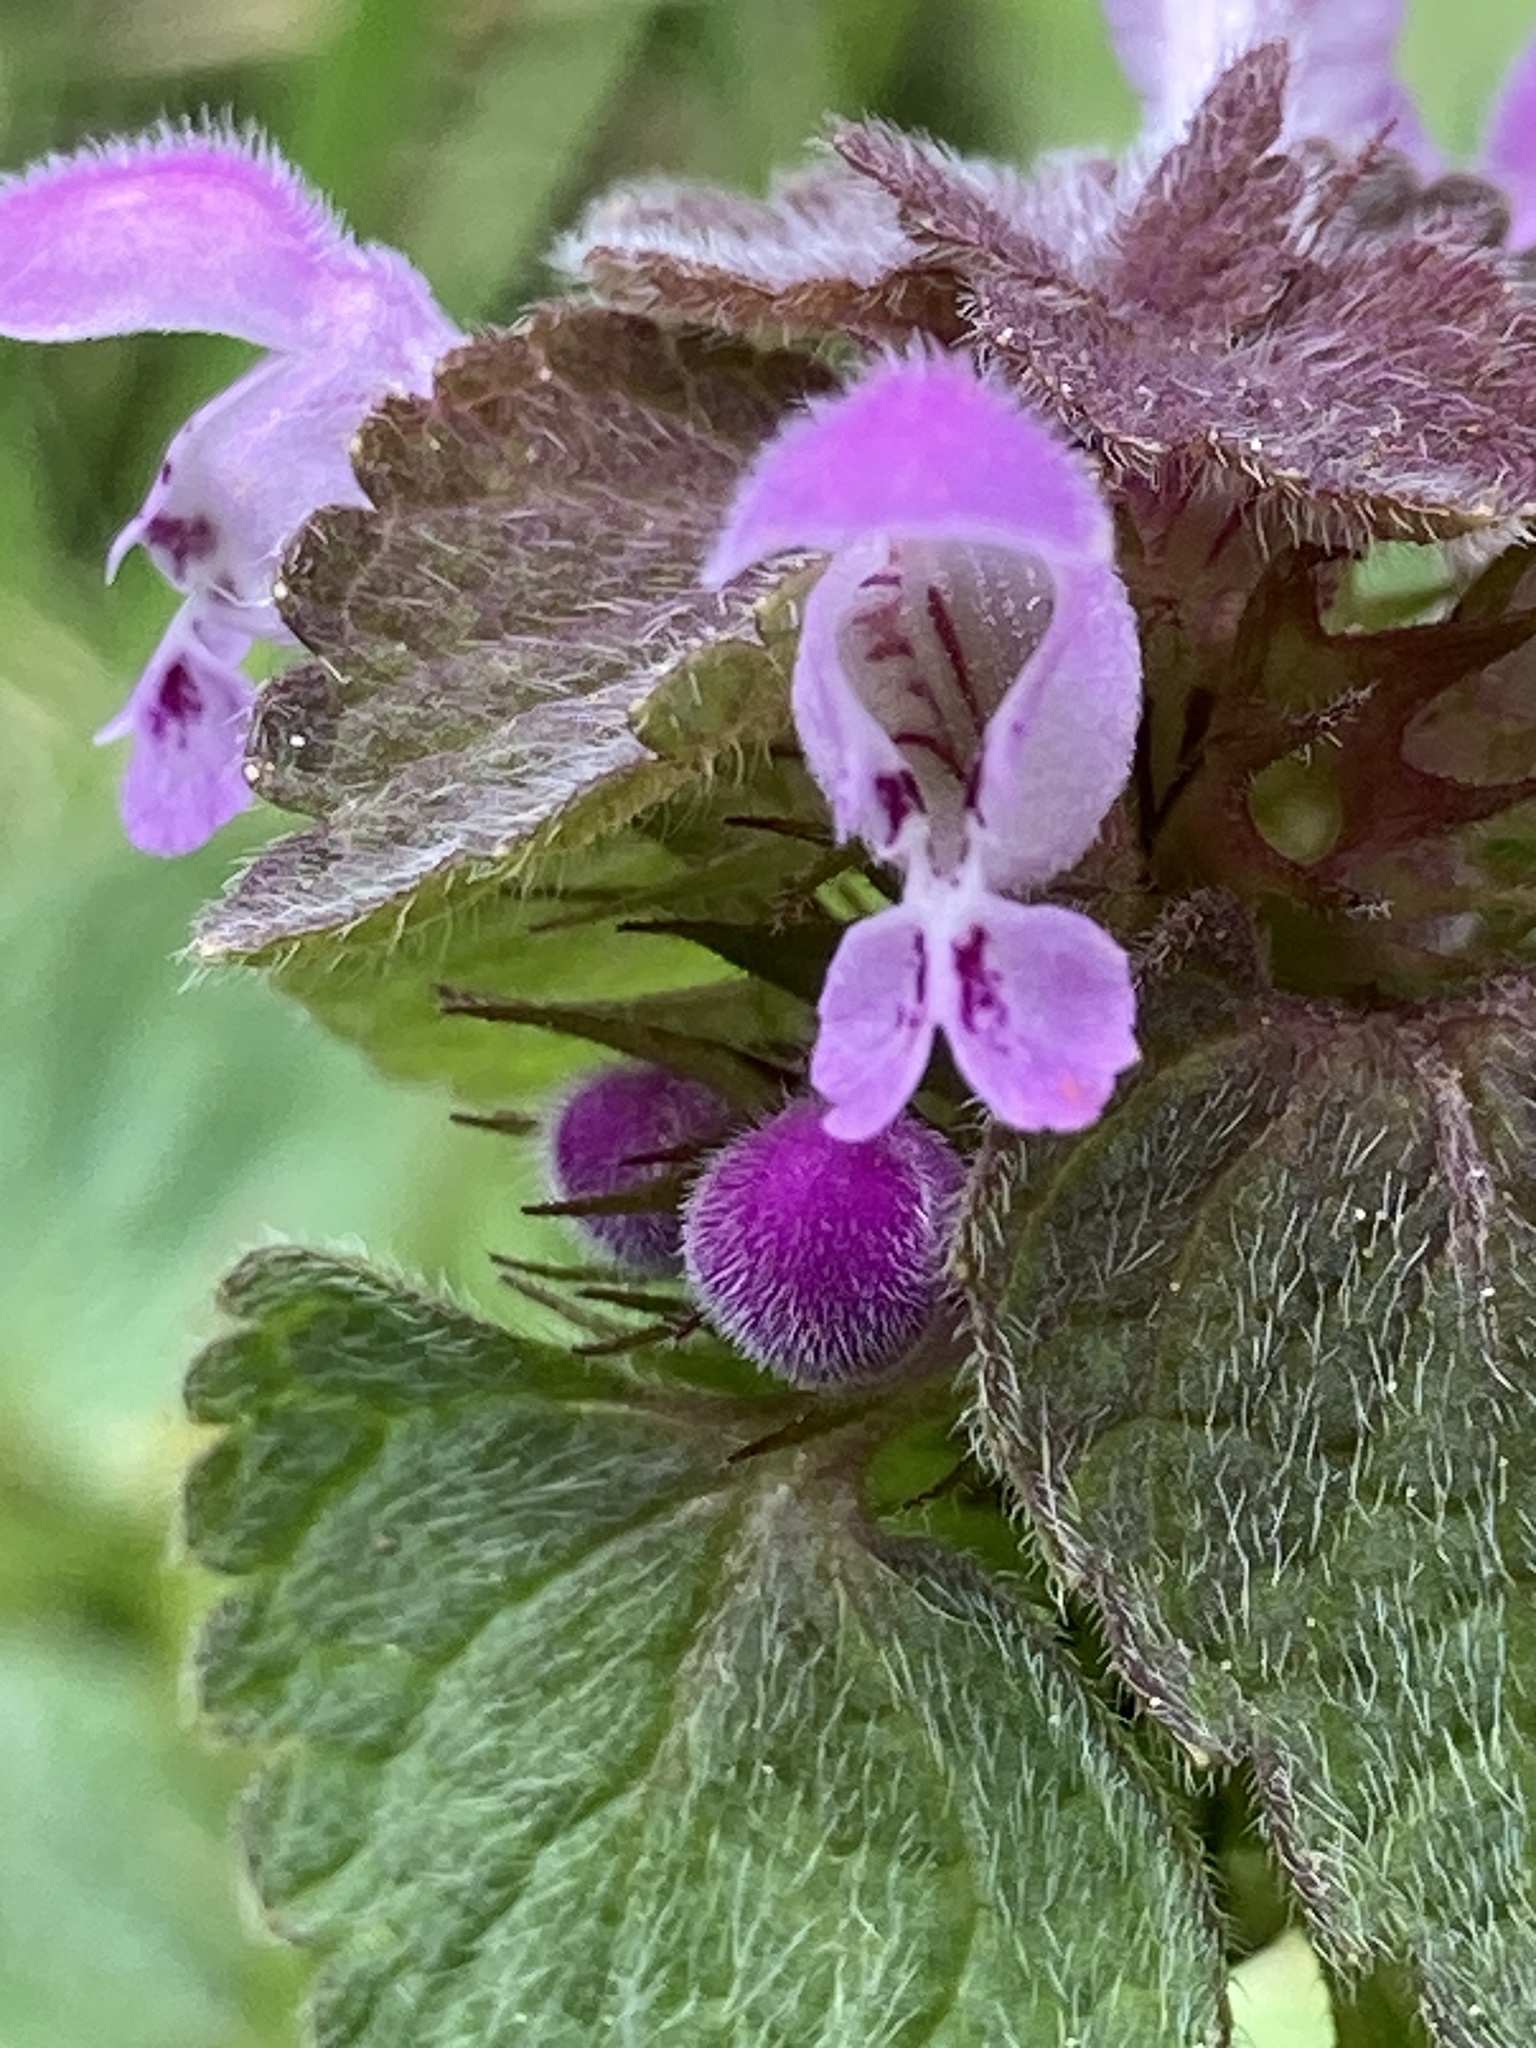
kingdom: Plantae
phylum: Tracheophyta
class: Magnoliopsida
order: Lamiales
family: Lamiaceae
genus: Lamium
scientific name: Lamium purpureum
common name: Red dead-nettle
